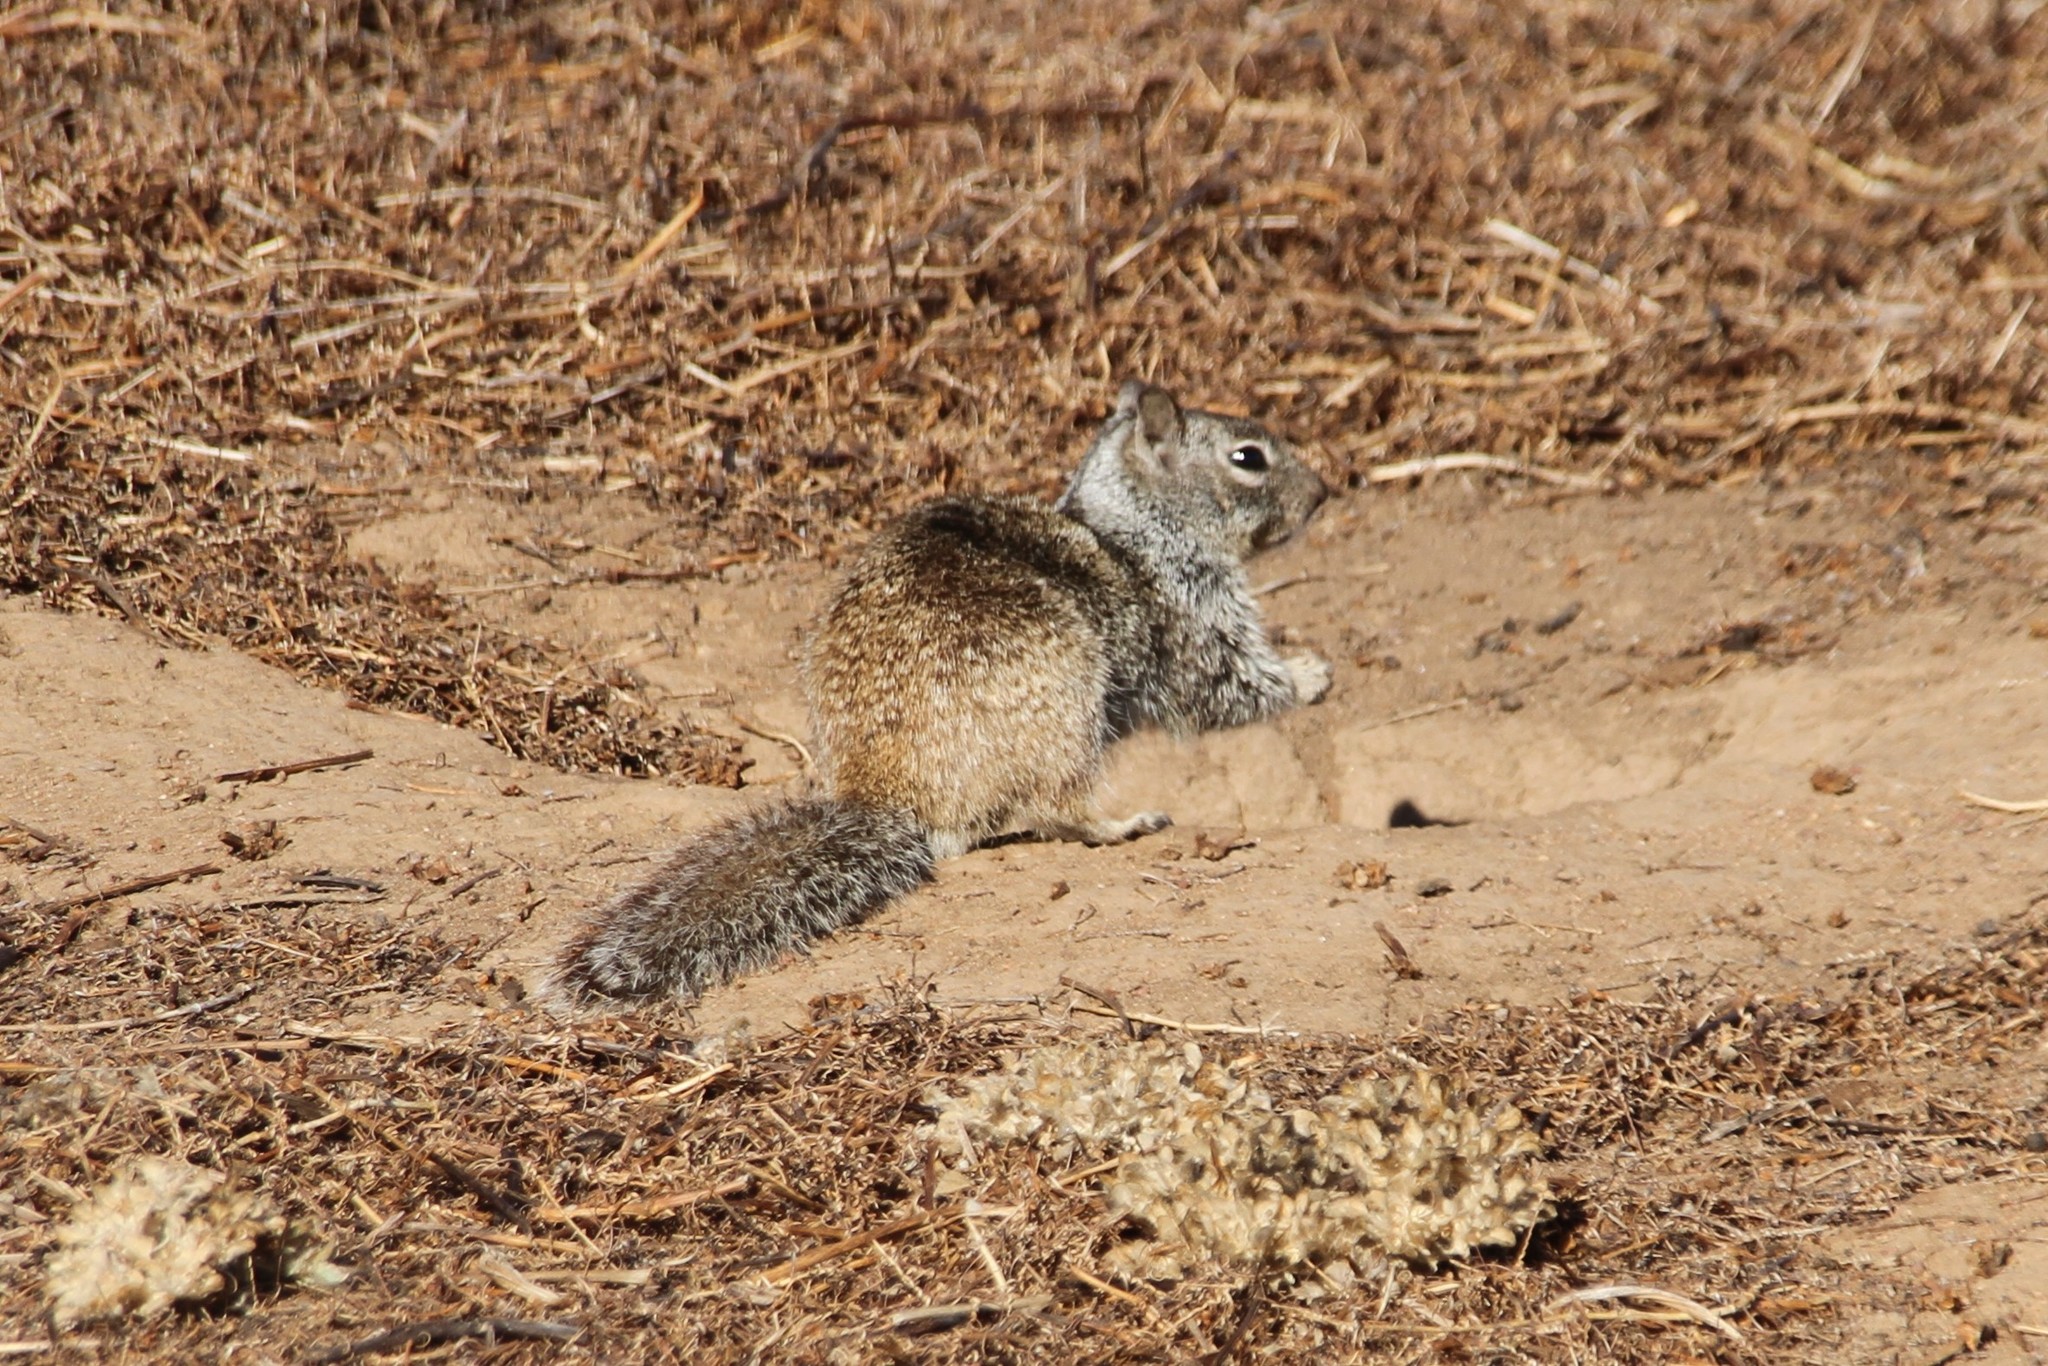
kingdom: Animalia
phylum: Chordata
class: Mammalia
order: Rodentia
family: Sciuridae
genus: Otospermophilus
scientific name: Otospermophilus beecheyi
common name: California ground squirrel
